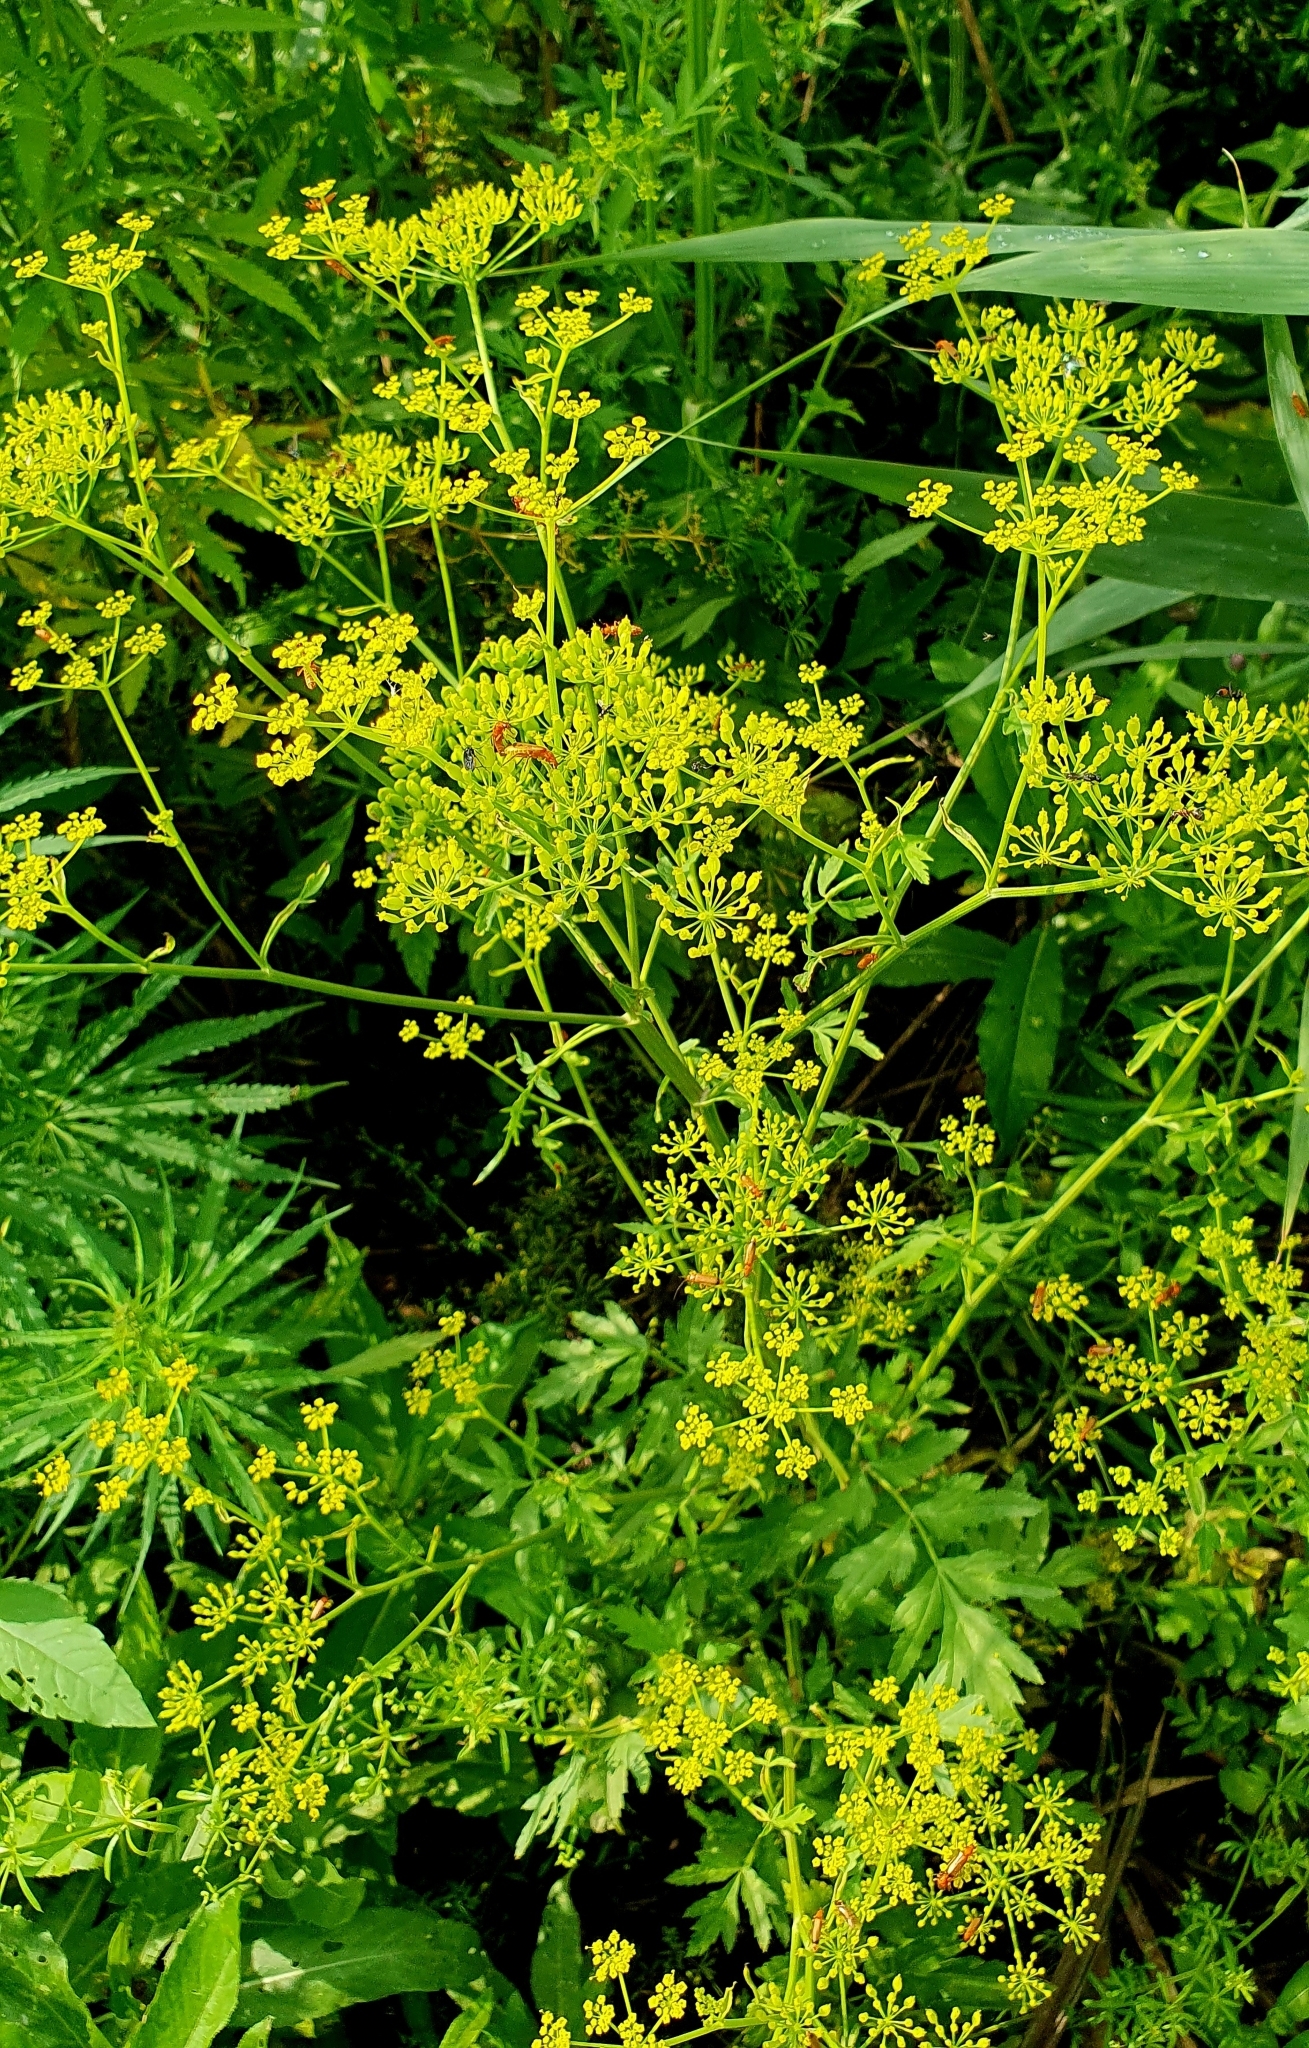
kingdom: Plantae
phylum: Tracheophyta
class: Magnoliopsida
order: Apiales
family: Apiaceae
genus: Pastinaca
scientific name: Pastinaca sativa
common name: Wild parsnip
